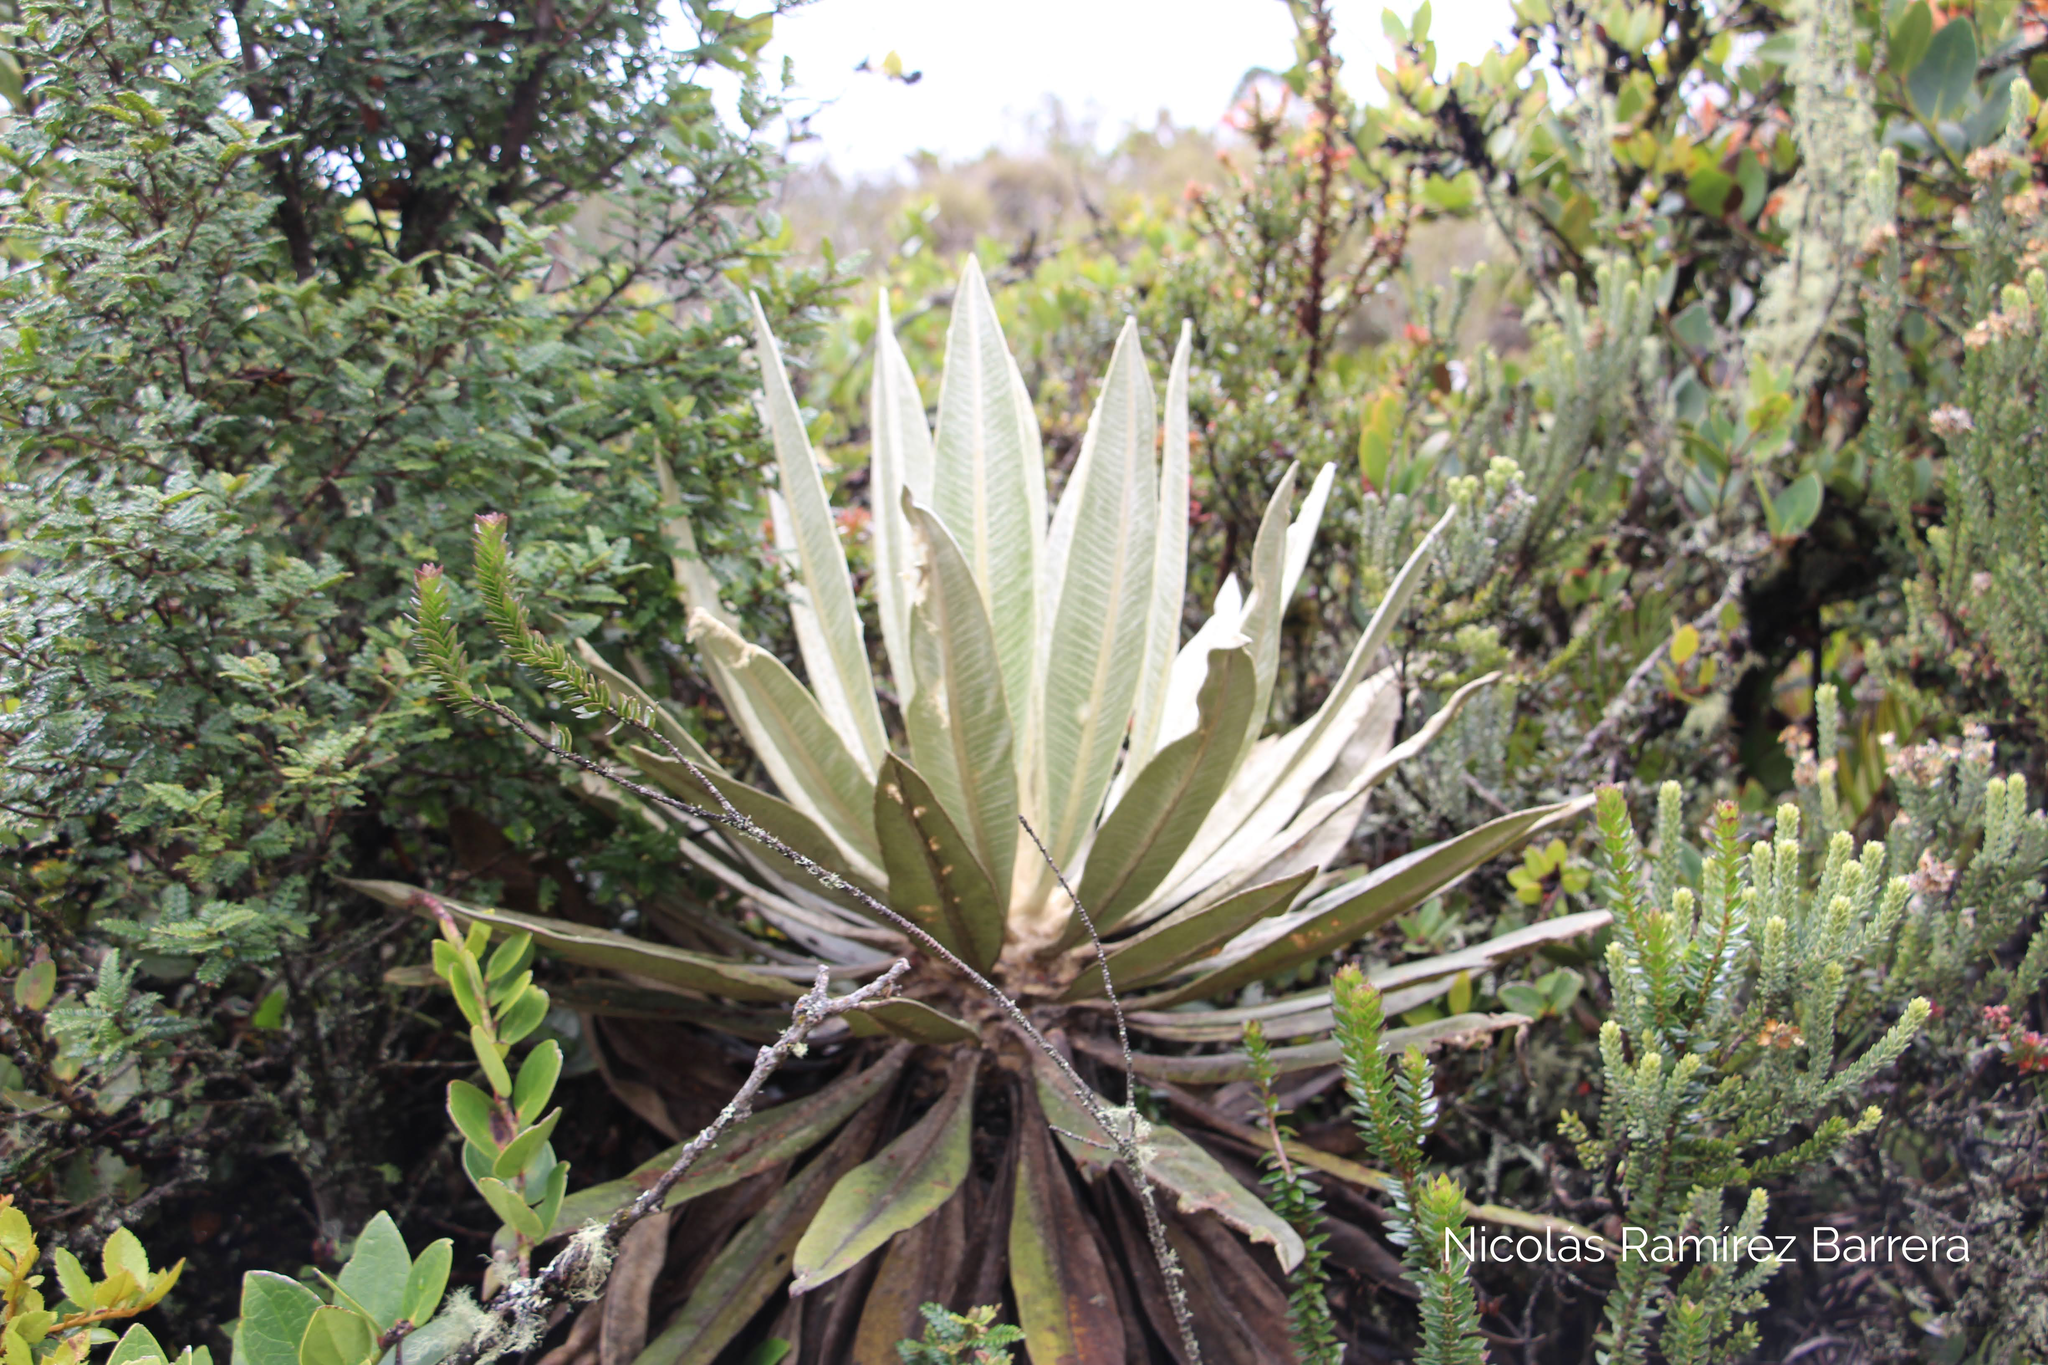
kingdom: Plantae
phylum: Tracheophyta
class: Magnoliopsida
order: Asterales
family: Asteraceae
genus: Espeletia
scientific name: Espeletia grandiflora
